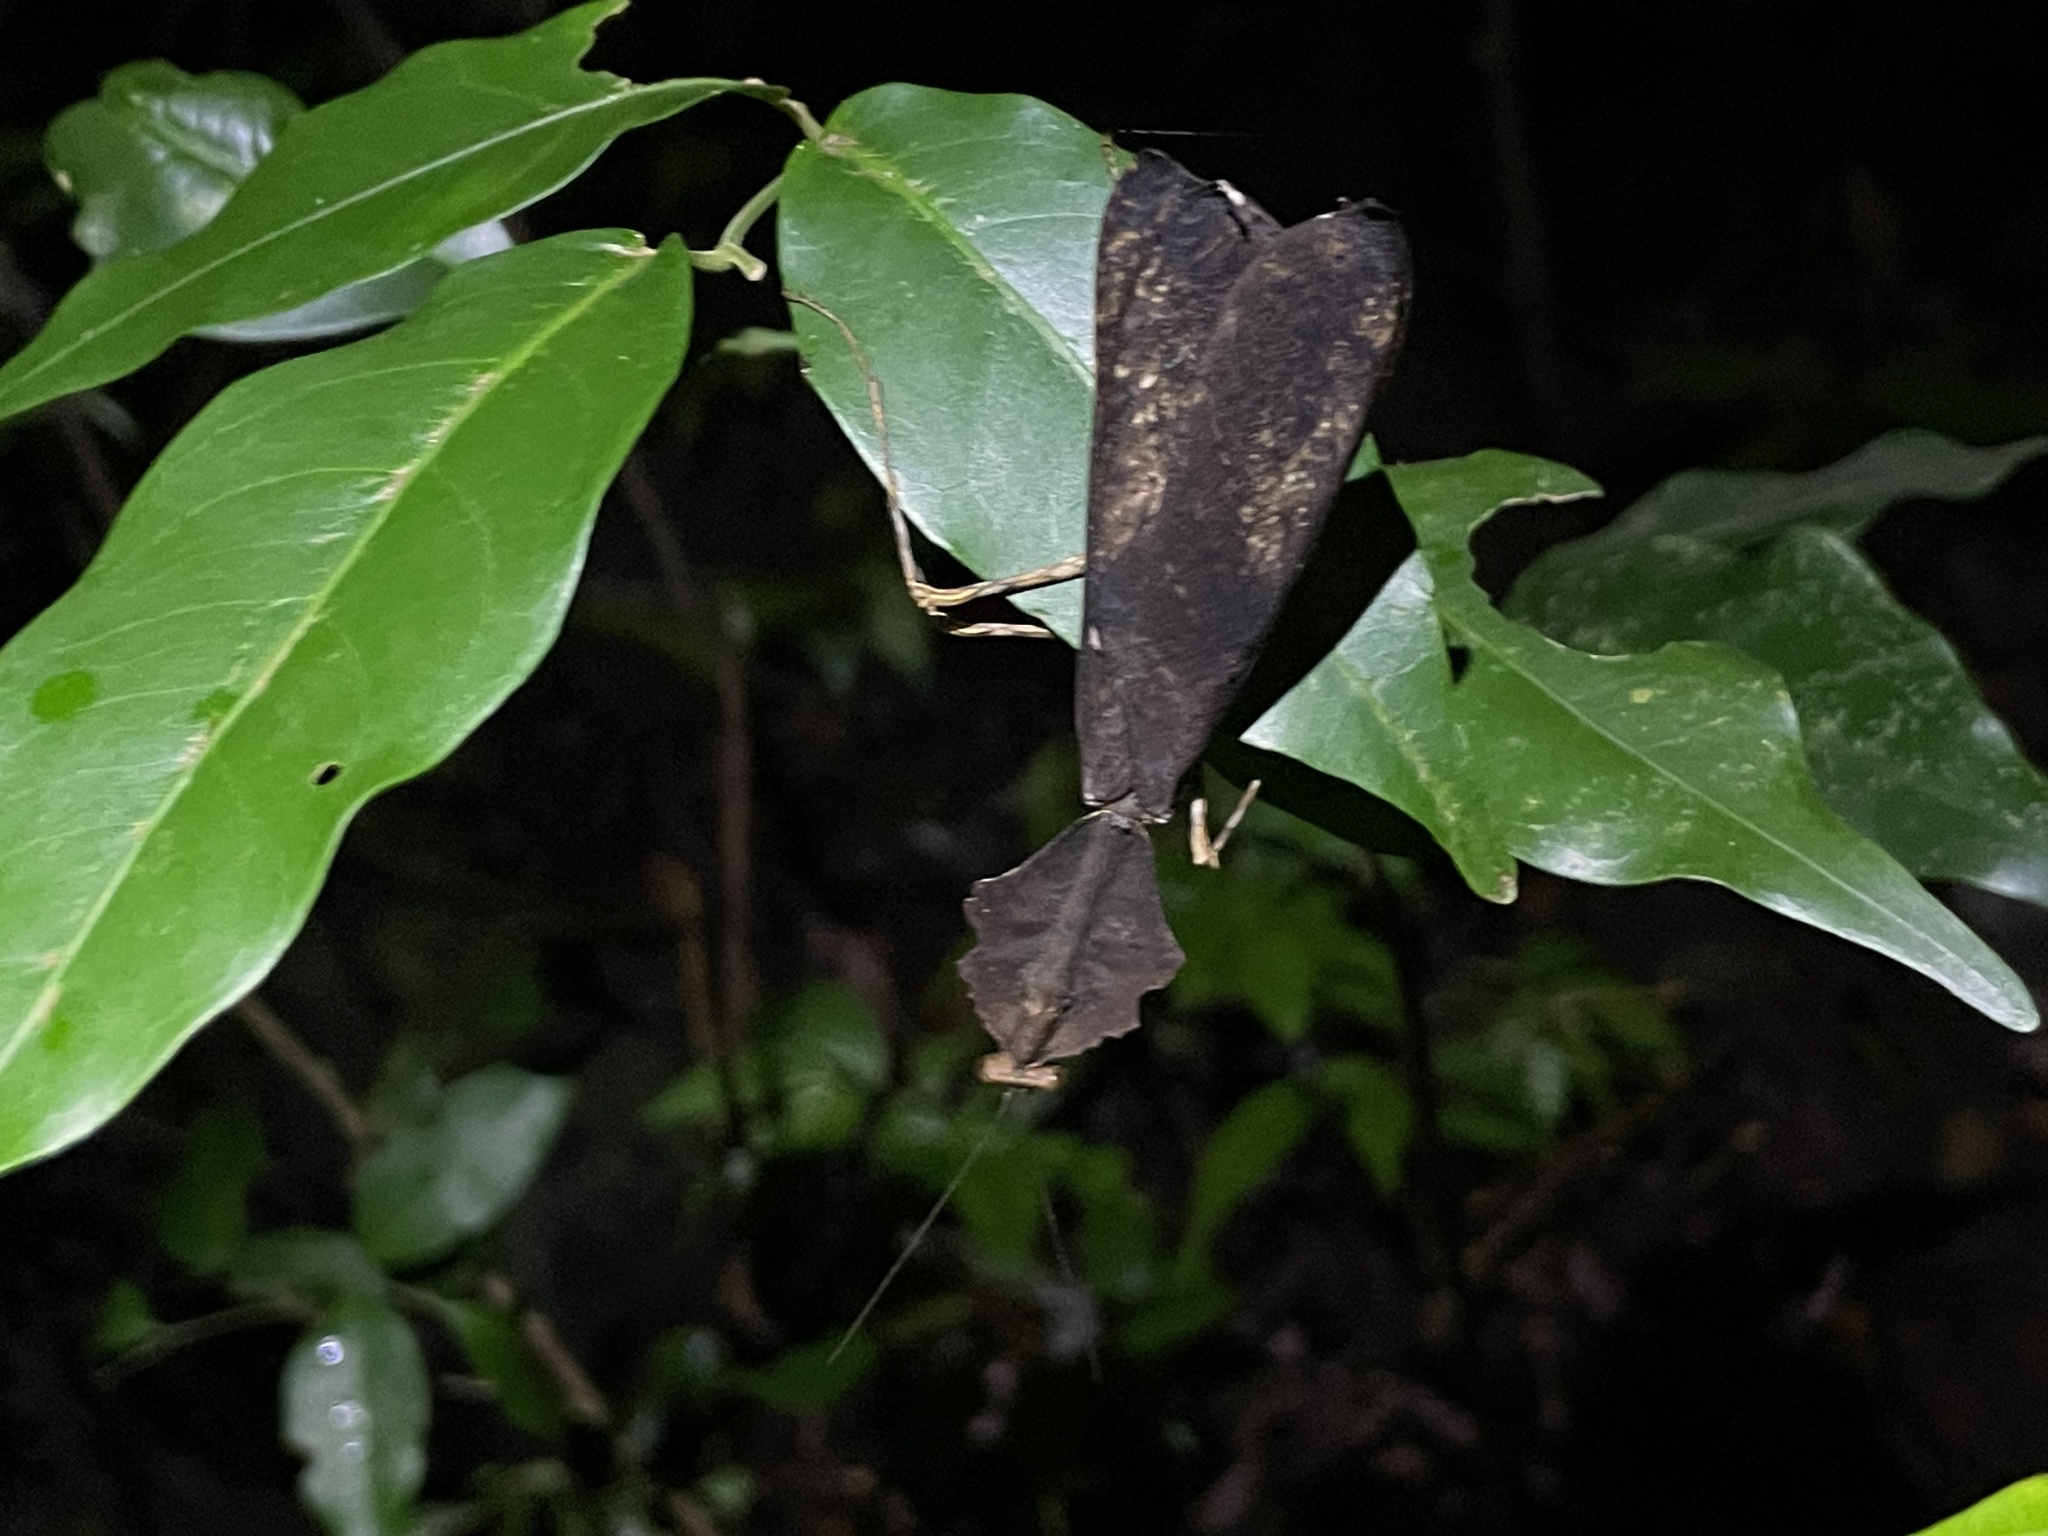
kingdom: Animalia
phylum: Arthropoda
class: Insecta
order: Mantodea
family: Deroplatyidae
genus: Deroplatys
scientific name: Deroplatys indica
